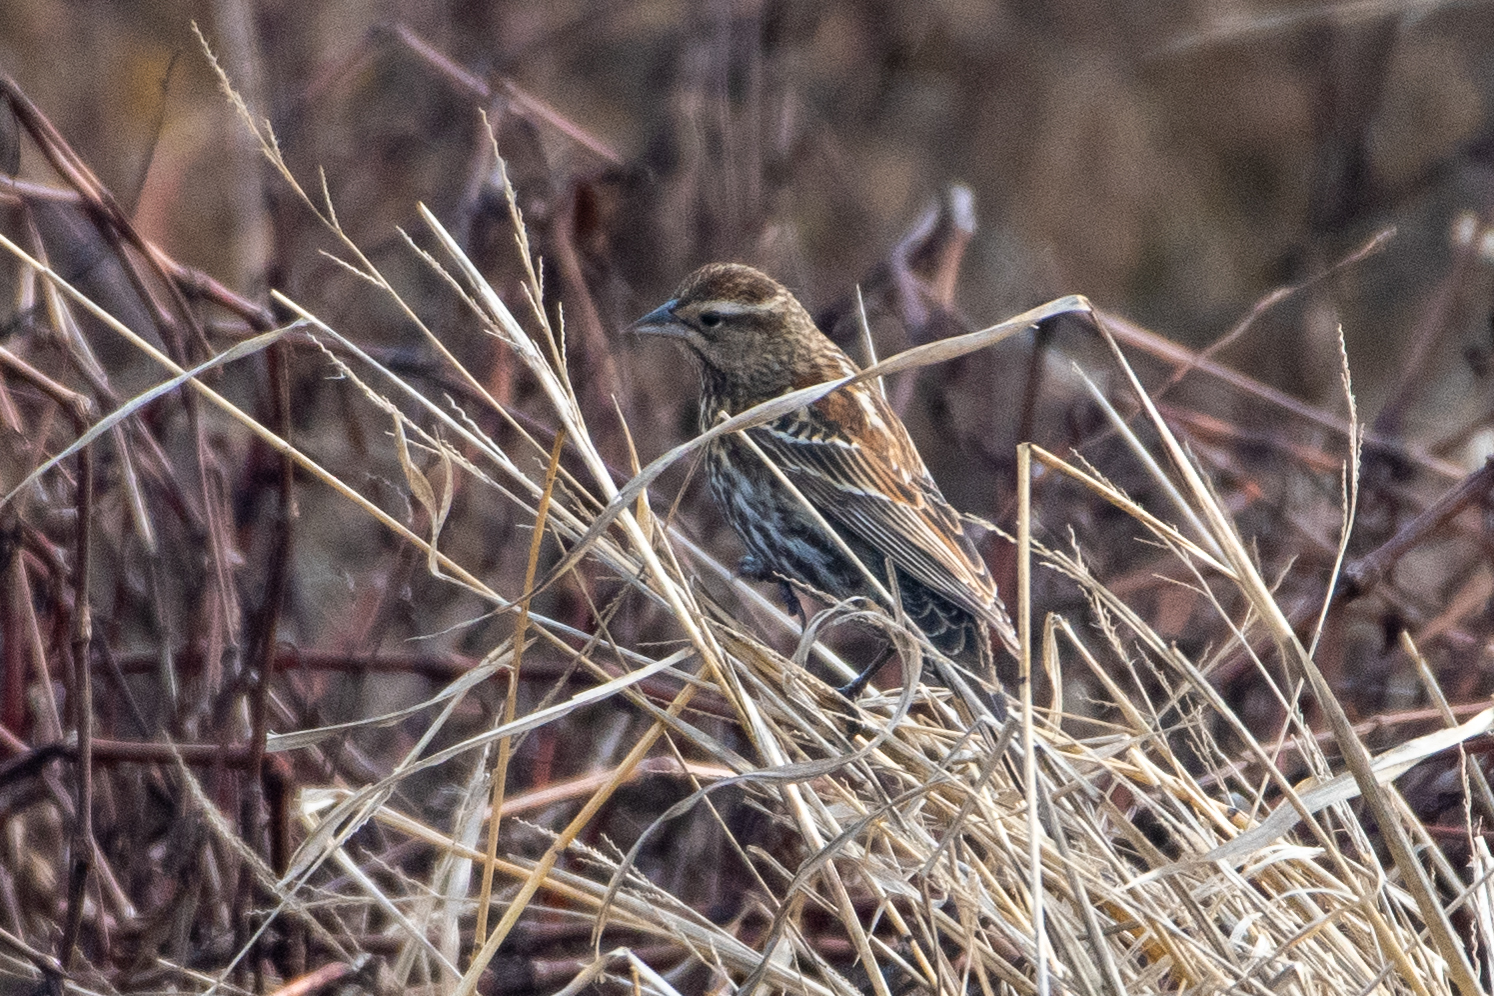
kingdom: Animalia
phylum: Chordata
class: Aves
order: Passeriformes
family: Icteridae
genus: Agelaius
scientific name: Agelaius phoeniceus
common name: Red-winged blackbird
